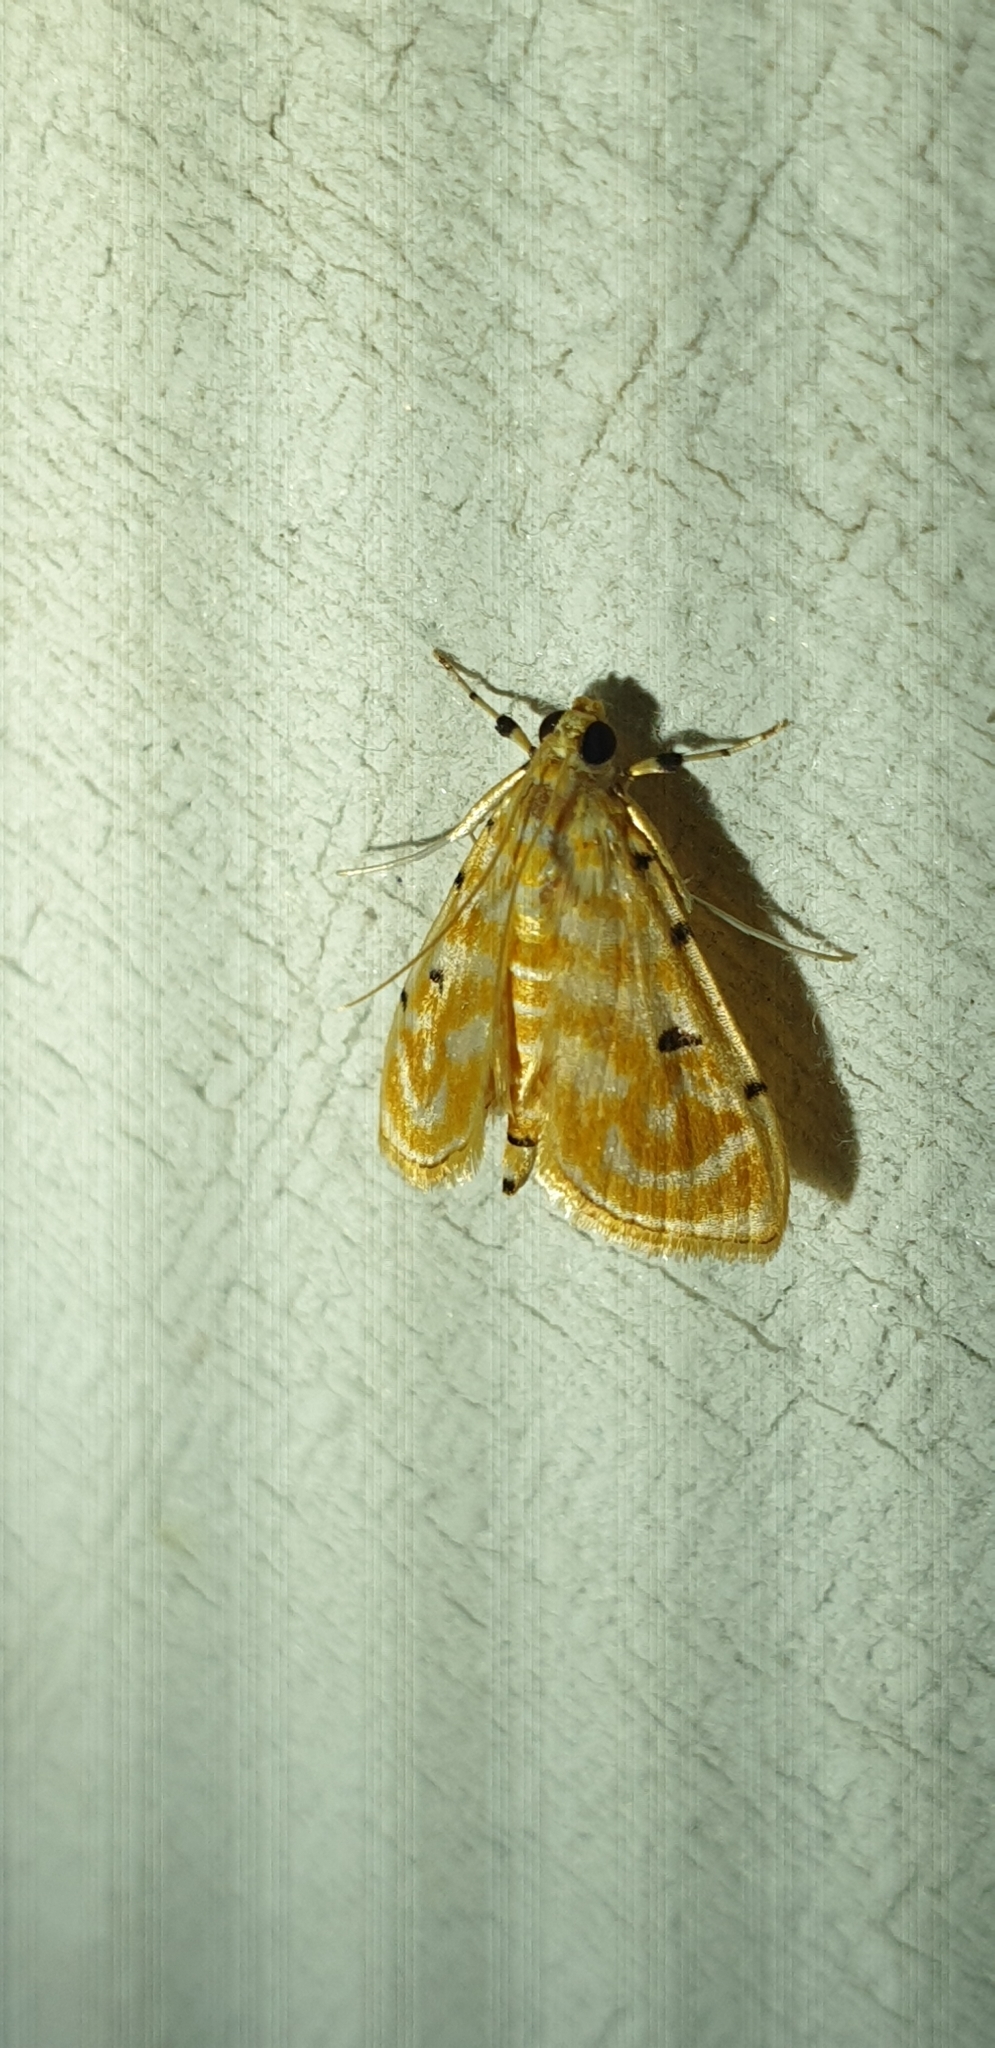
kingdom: Animalia
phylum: Arthropoda
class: Insecta
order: Lepidoptera
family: Crambidae
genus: Notarcha
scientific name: Notarcha aurolinealis
